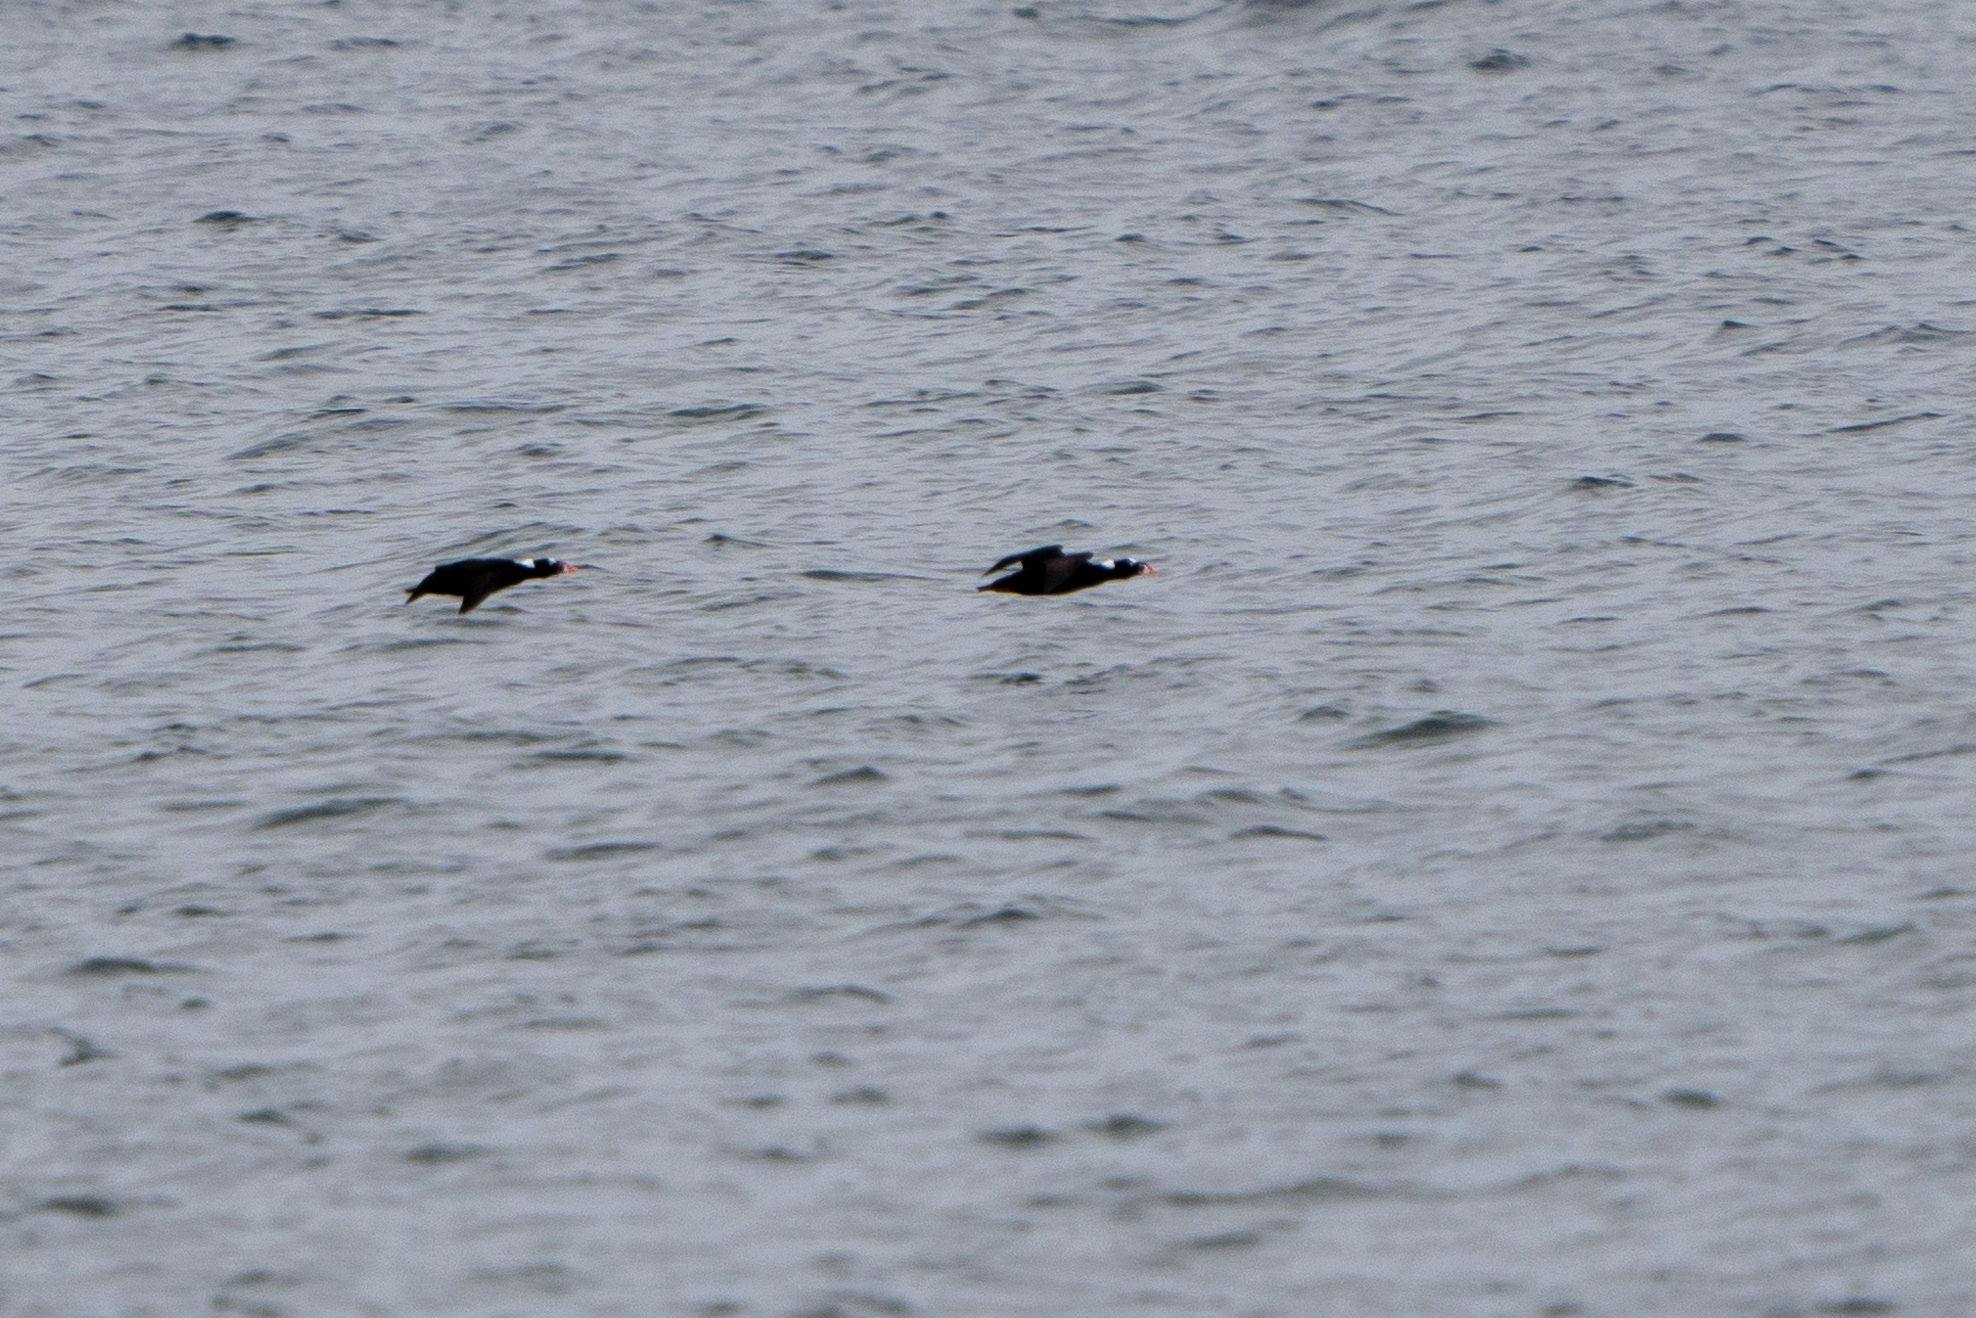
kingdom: Animalia
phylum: Chordata
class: Aves
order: Anseriformes
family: Anatidae
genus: Melanitta
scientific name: Melanitta perspicillata
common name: Surf scoter
